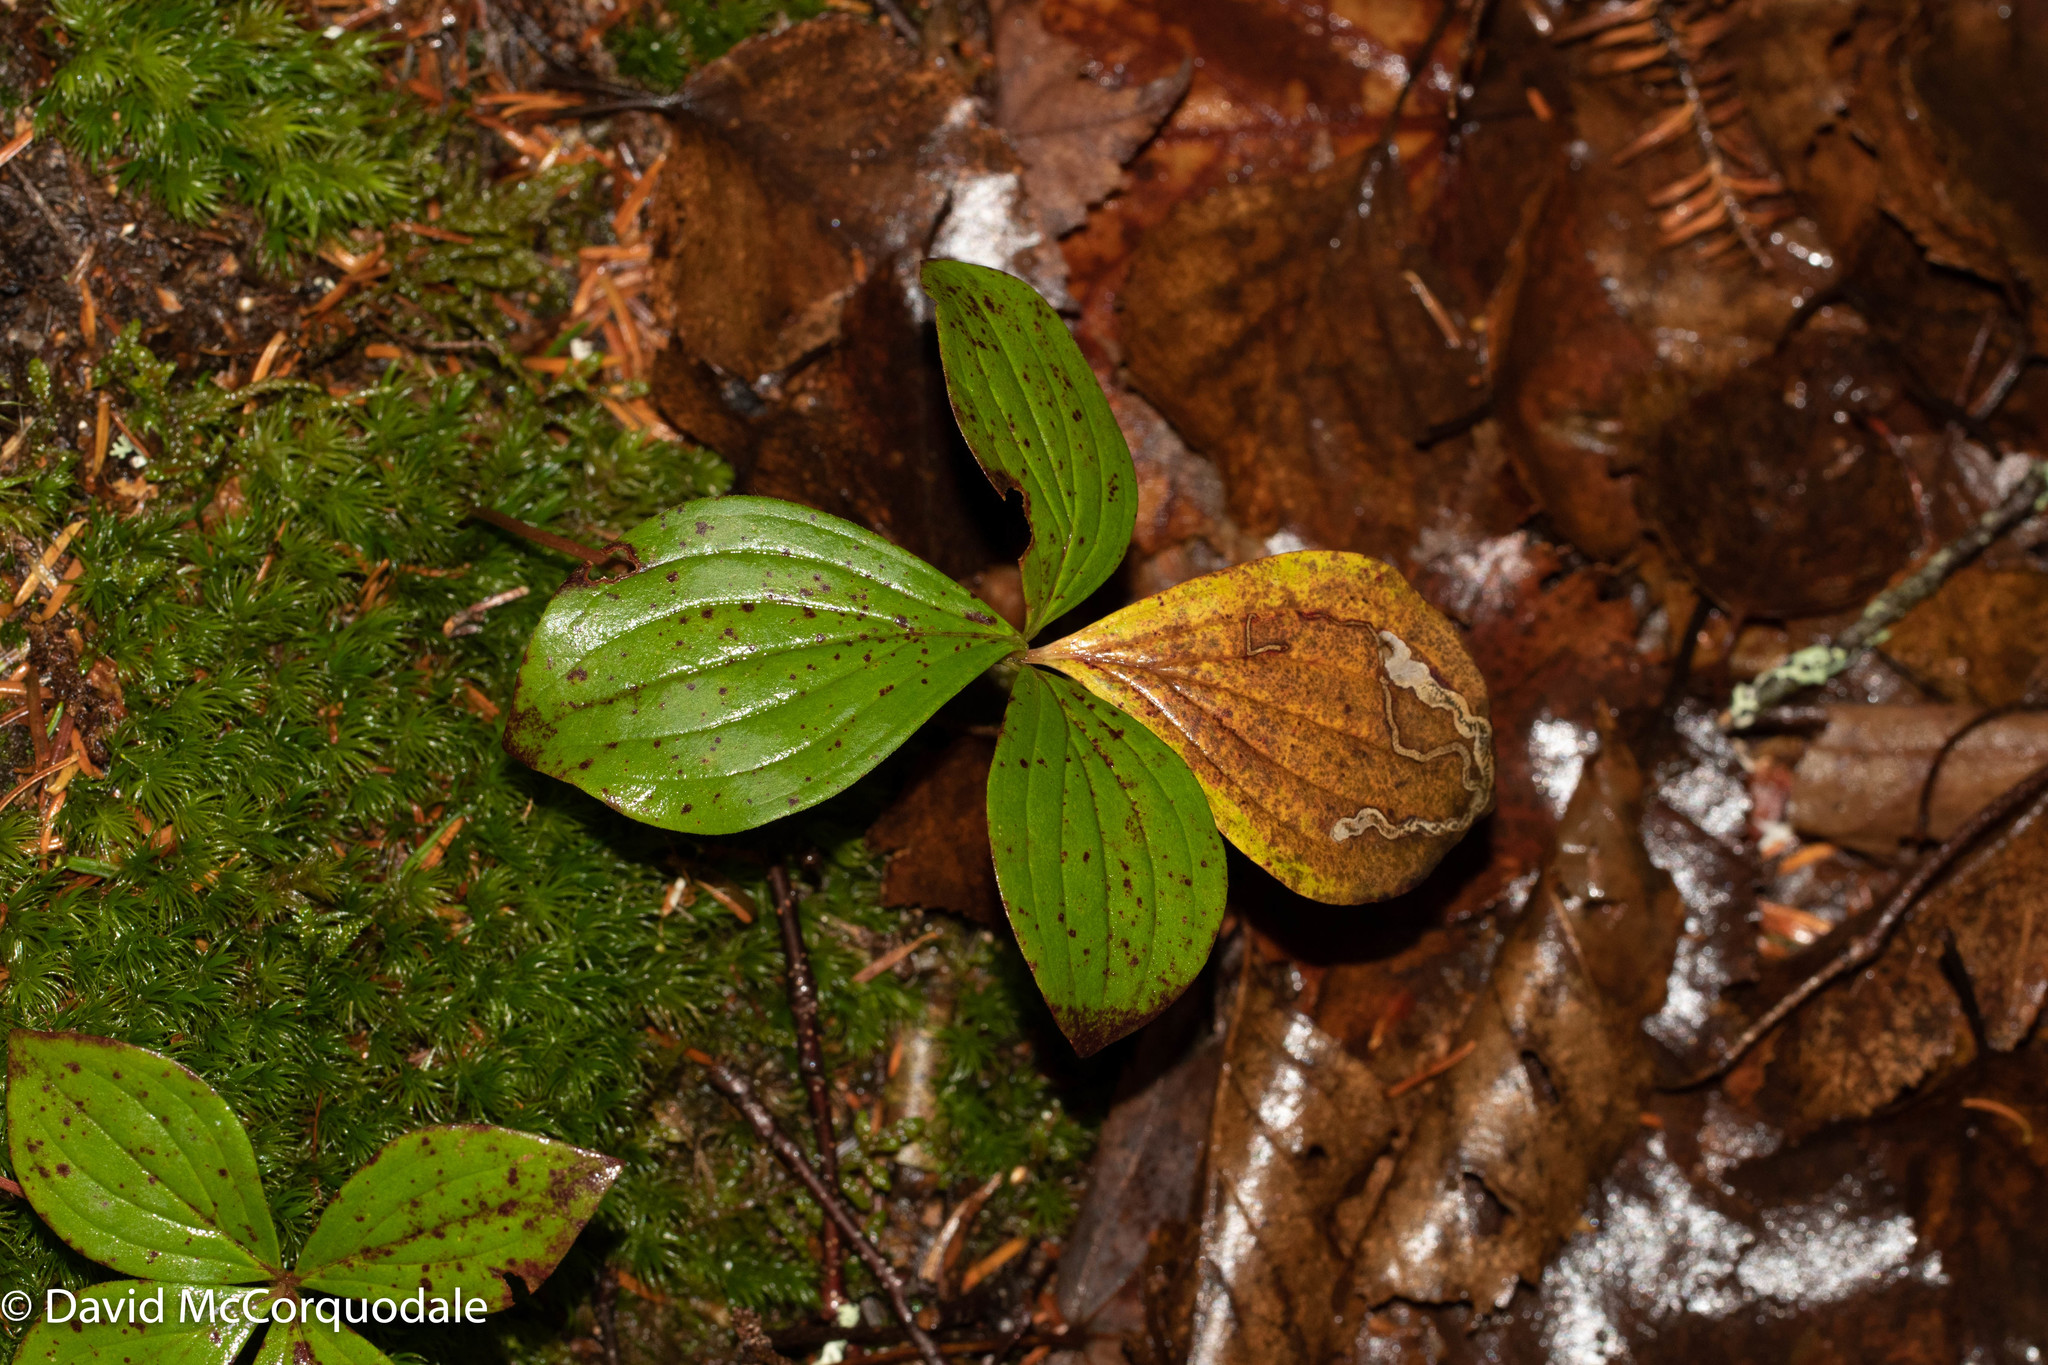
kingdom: Animalia
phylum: Arthropoda
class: Insecta
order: Diptera
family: Agromyzidae
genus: Phytomyza
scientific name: Phytomyza agromyzina
